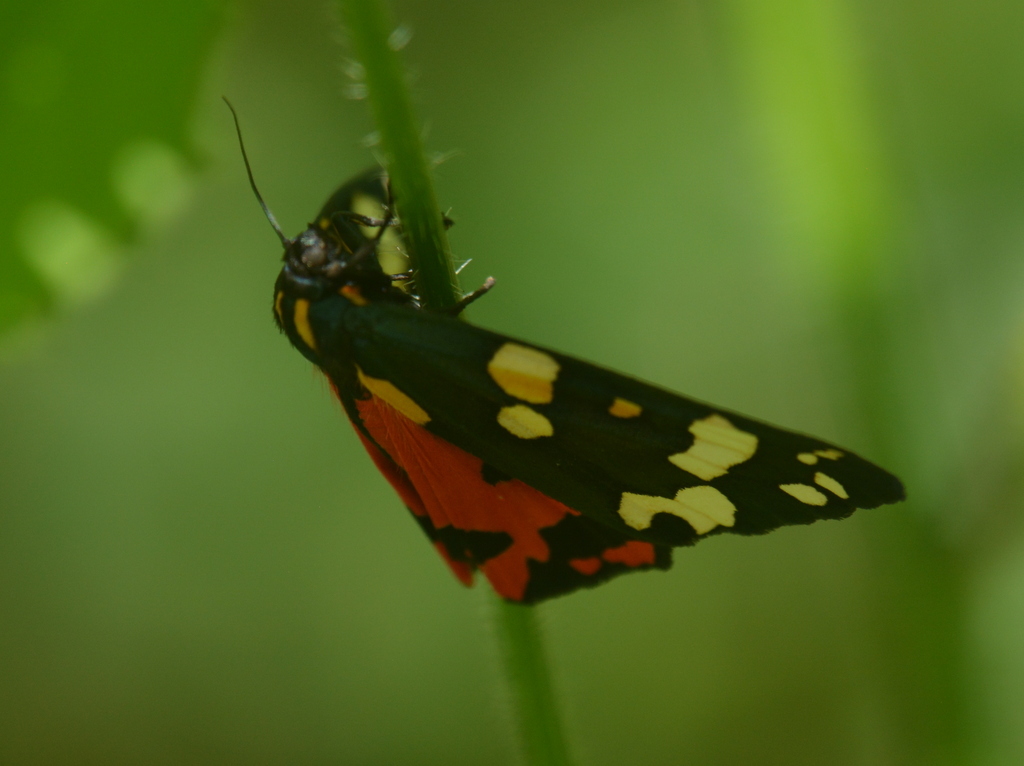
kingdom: Animalia
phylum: Arthropoda
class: Insecta
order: Lepidoptera
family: Erebidae
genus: Callimorpha
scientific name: Callimorpha dominula
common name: Scarlet tiger
